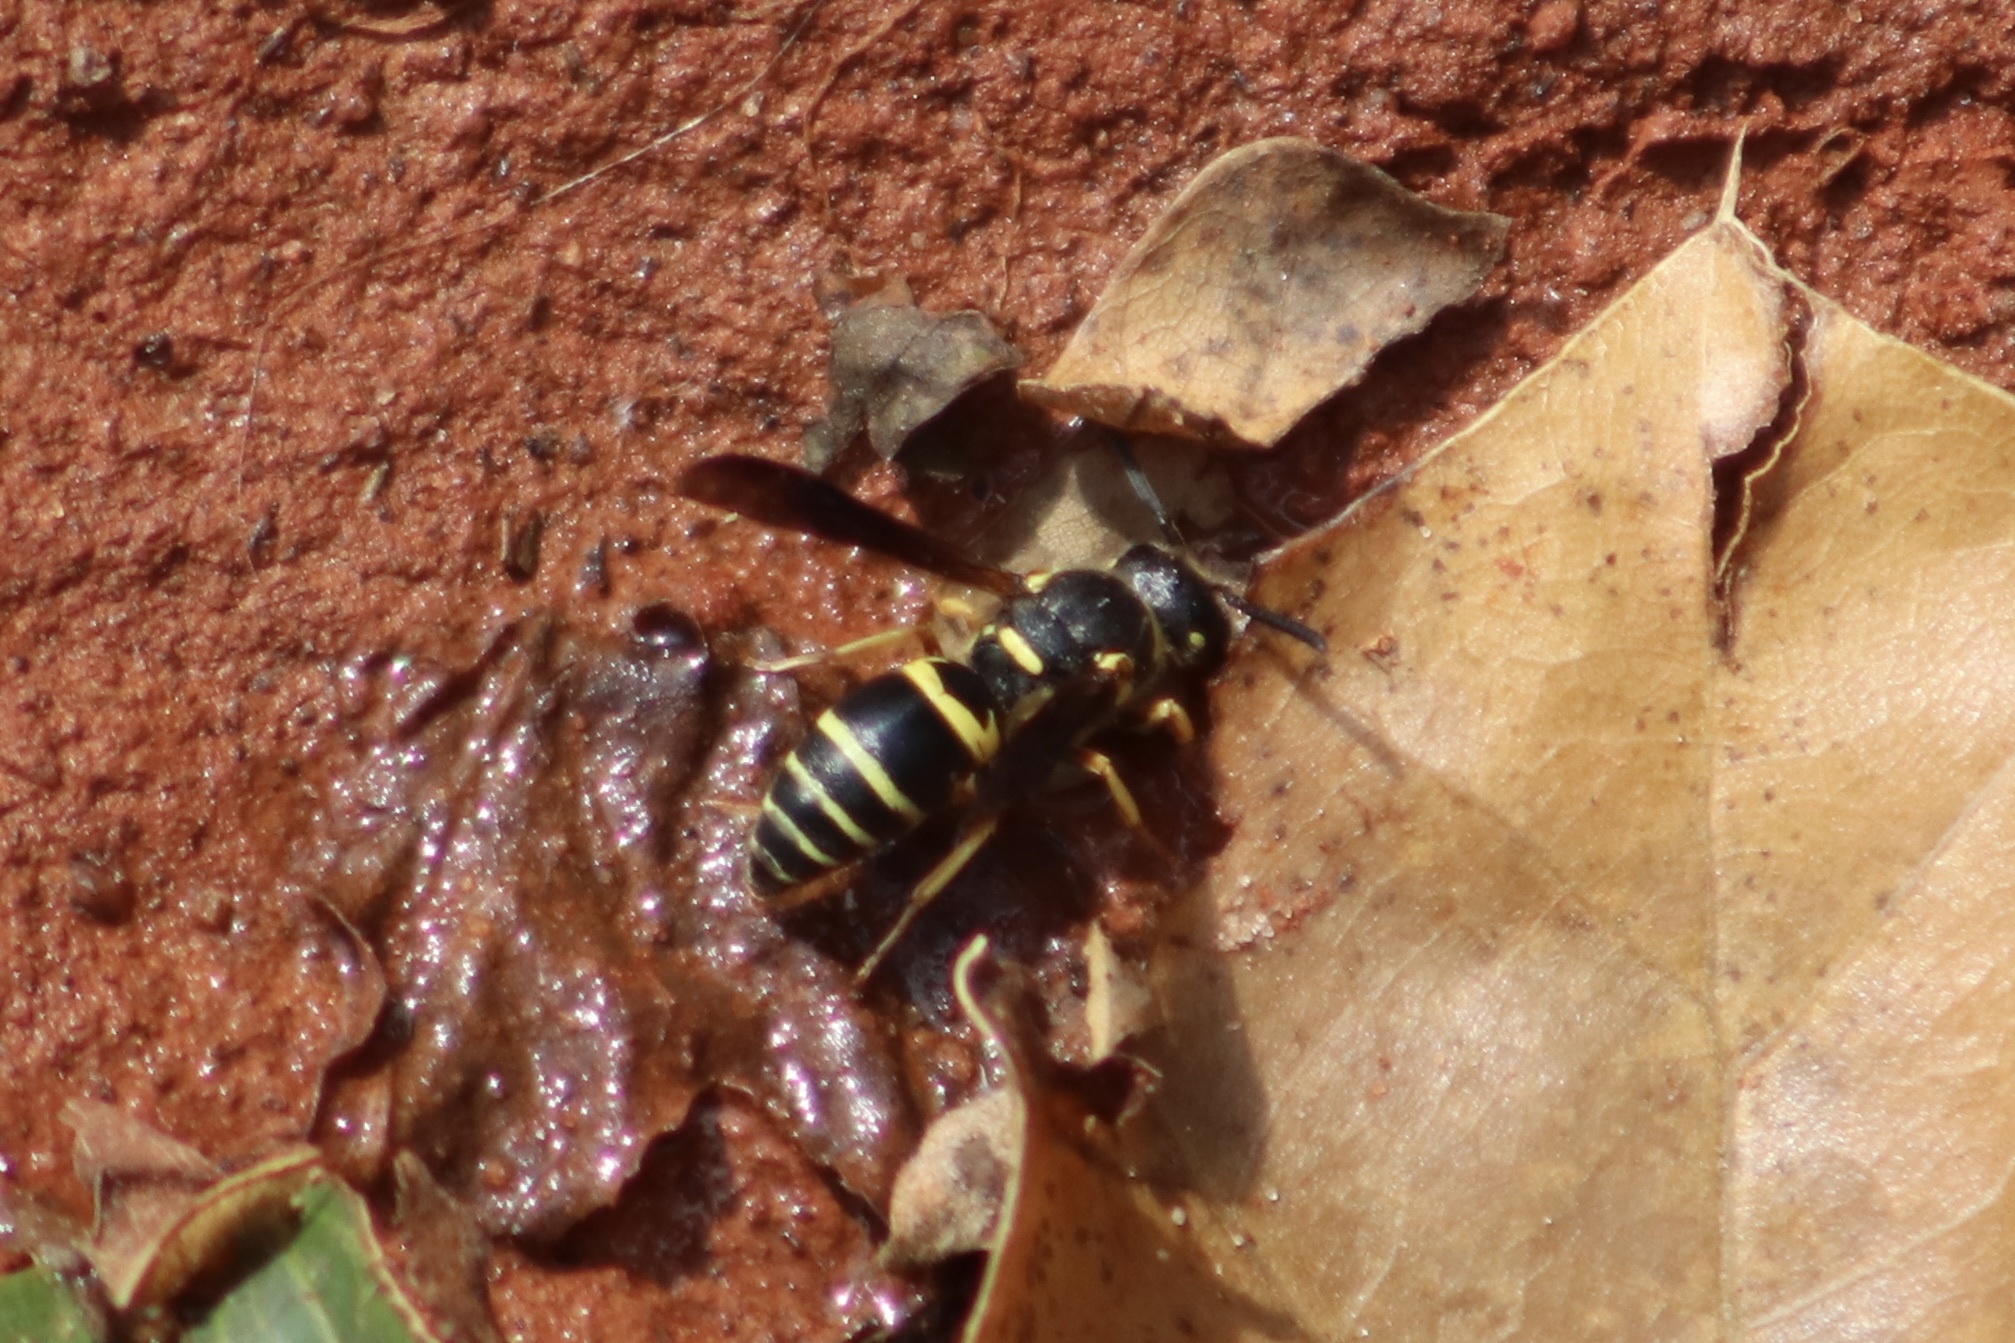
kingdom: Animalia
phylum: Arthropoda
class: Insecta
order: Hymenoptera
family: Eumenidae
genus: Euodynerus
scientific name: Euodynerus foraminatus
